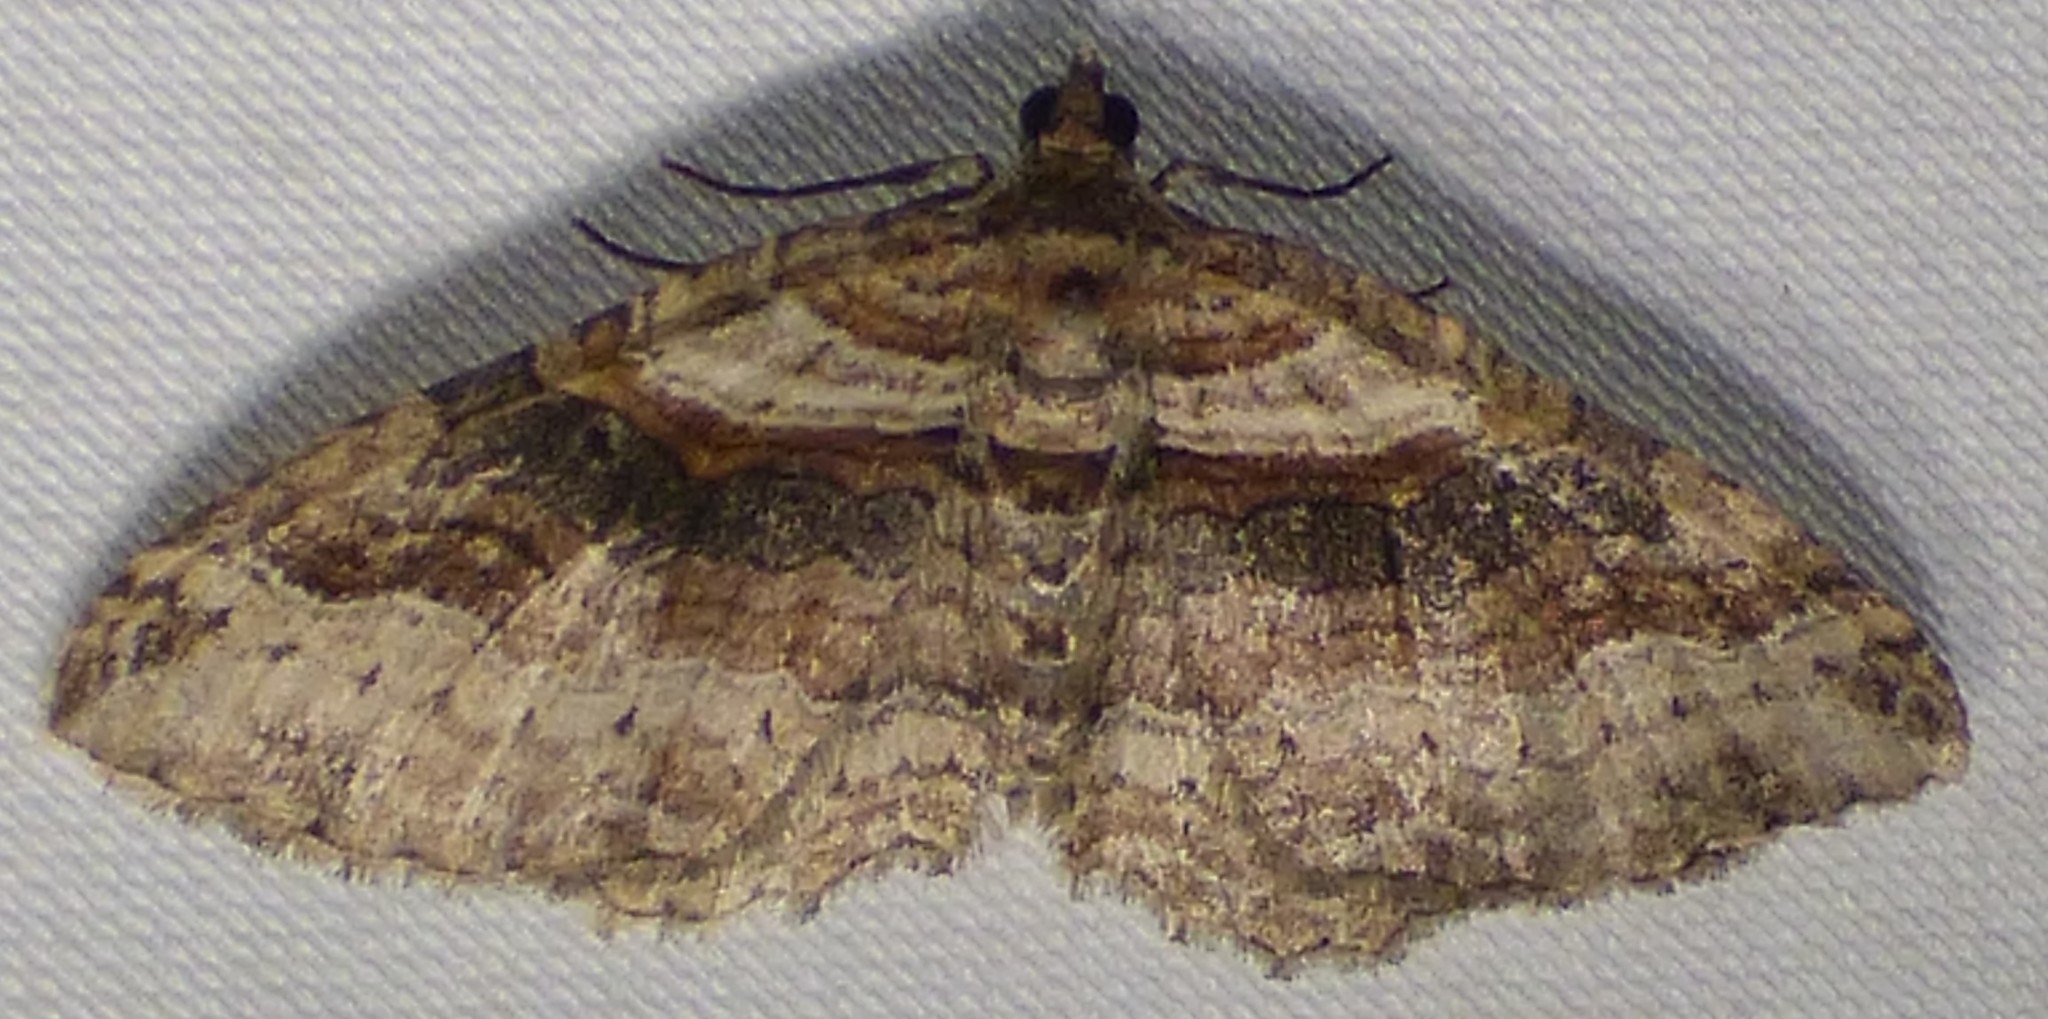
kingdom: Animalia
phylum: Arthropoda
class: Insecta
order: Lepidoptera
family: Geometridae
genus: Costaconvexa
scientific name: Costaconvexa centrostrigaria
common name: Bent-line carpet
